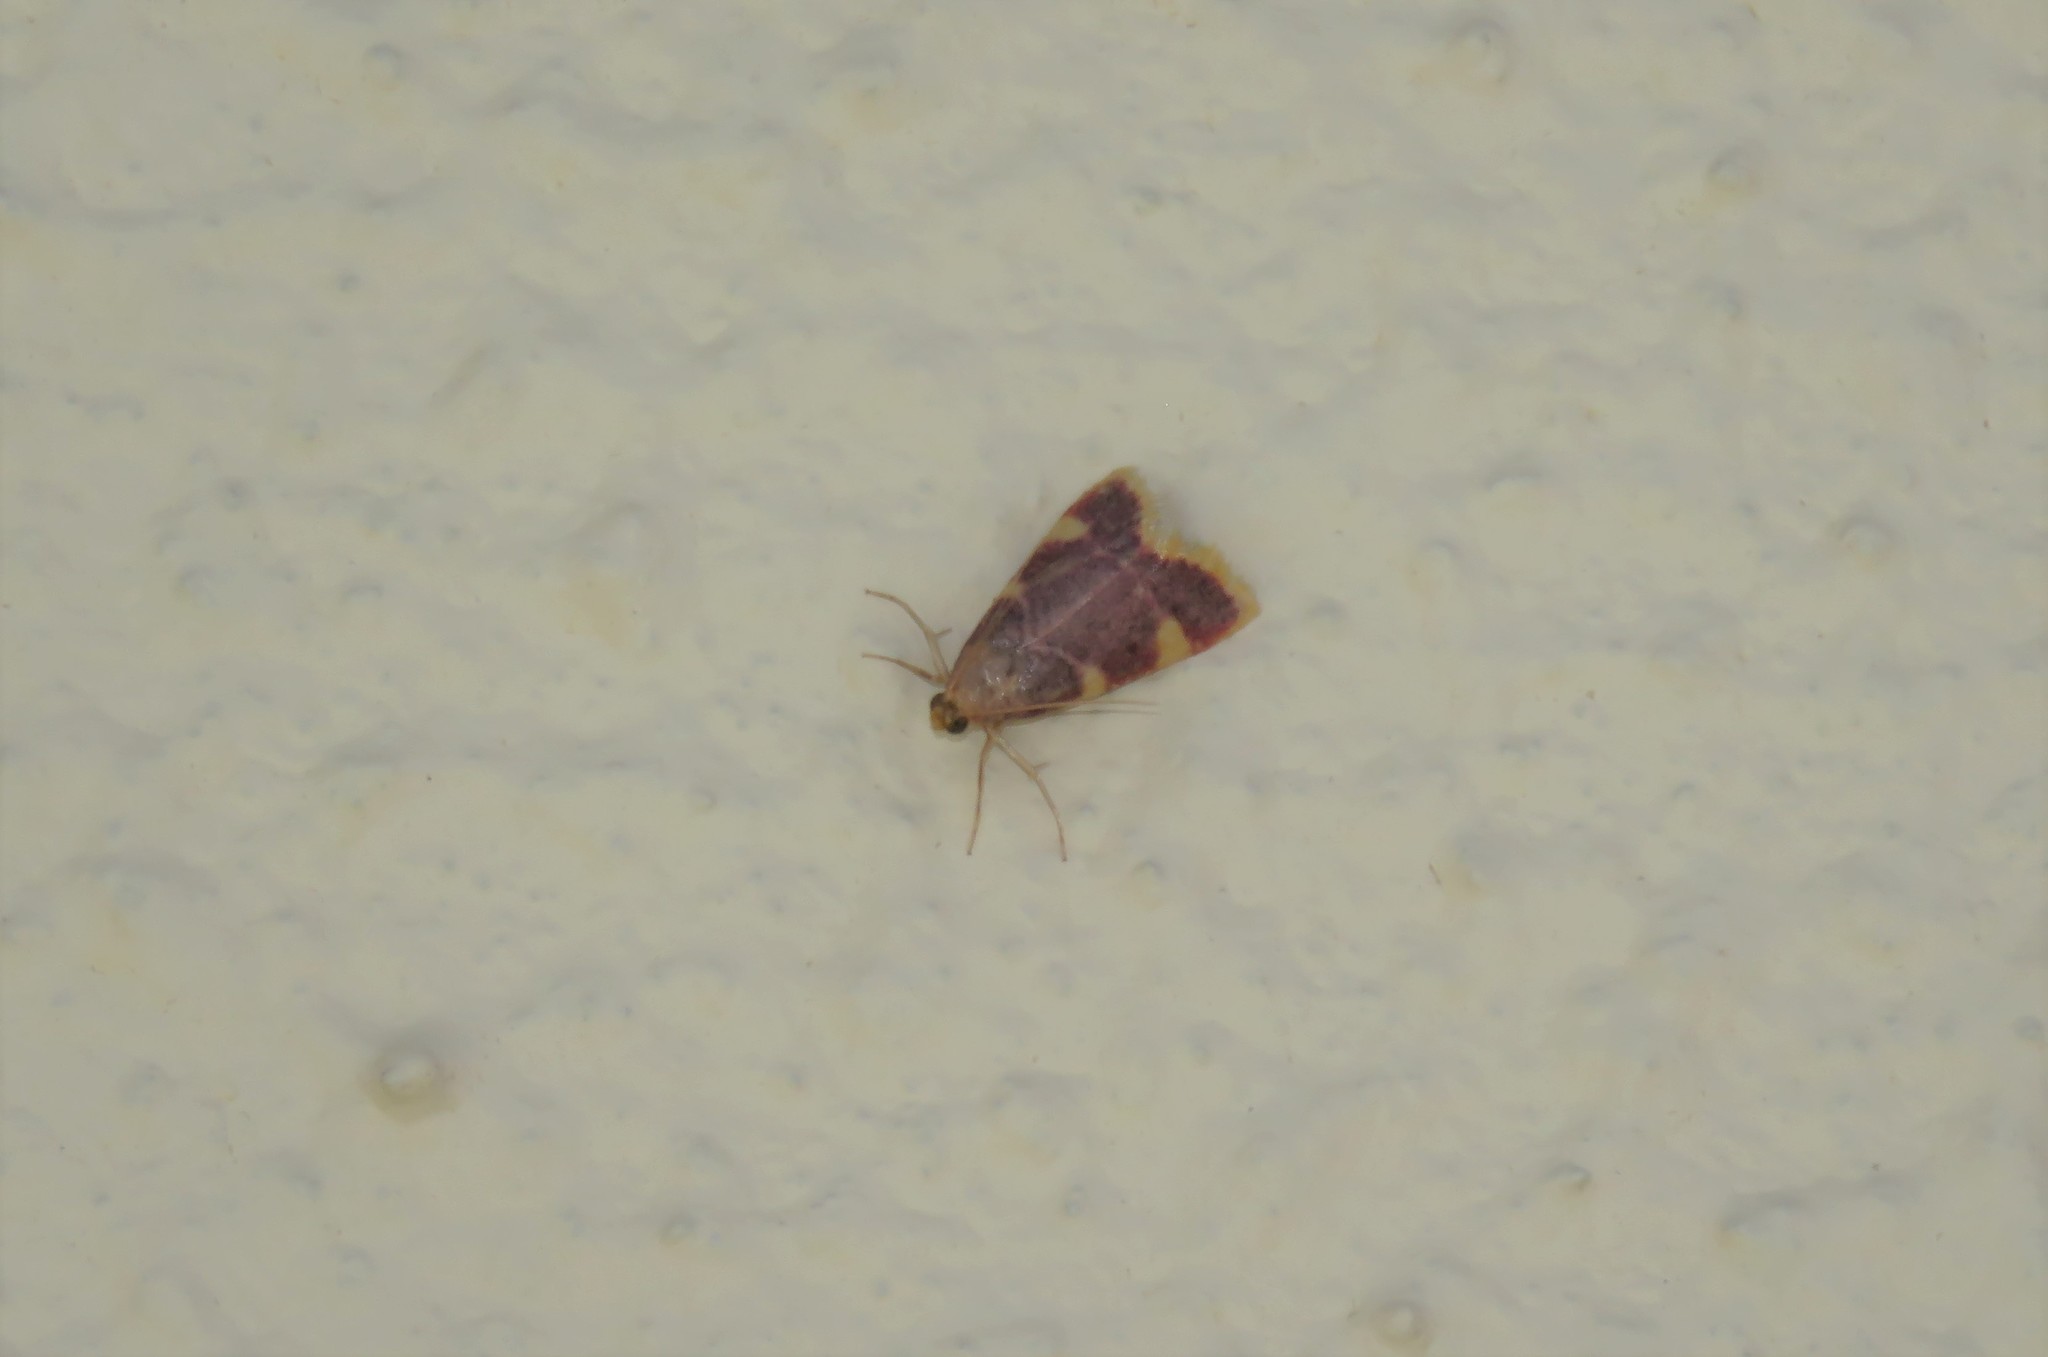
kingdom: Animalia
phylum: Arthropoda
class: Insecta
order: Lepidoptera
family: Pyralidae
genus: Hypsopygia
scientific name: Hypsopygia costalis
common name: Gold triangle
